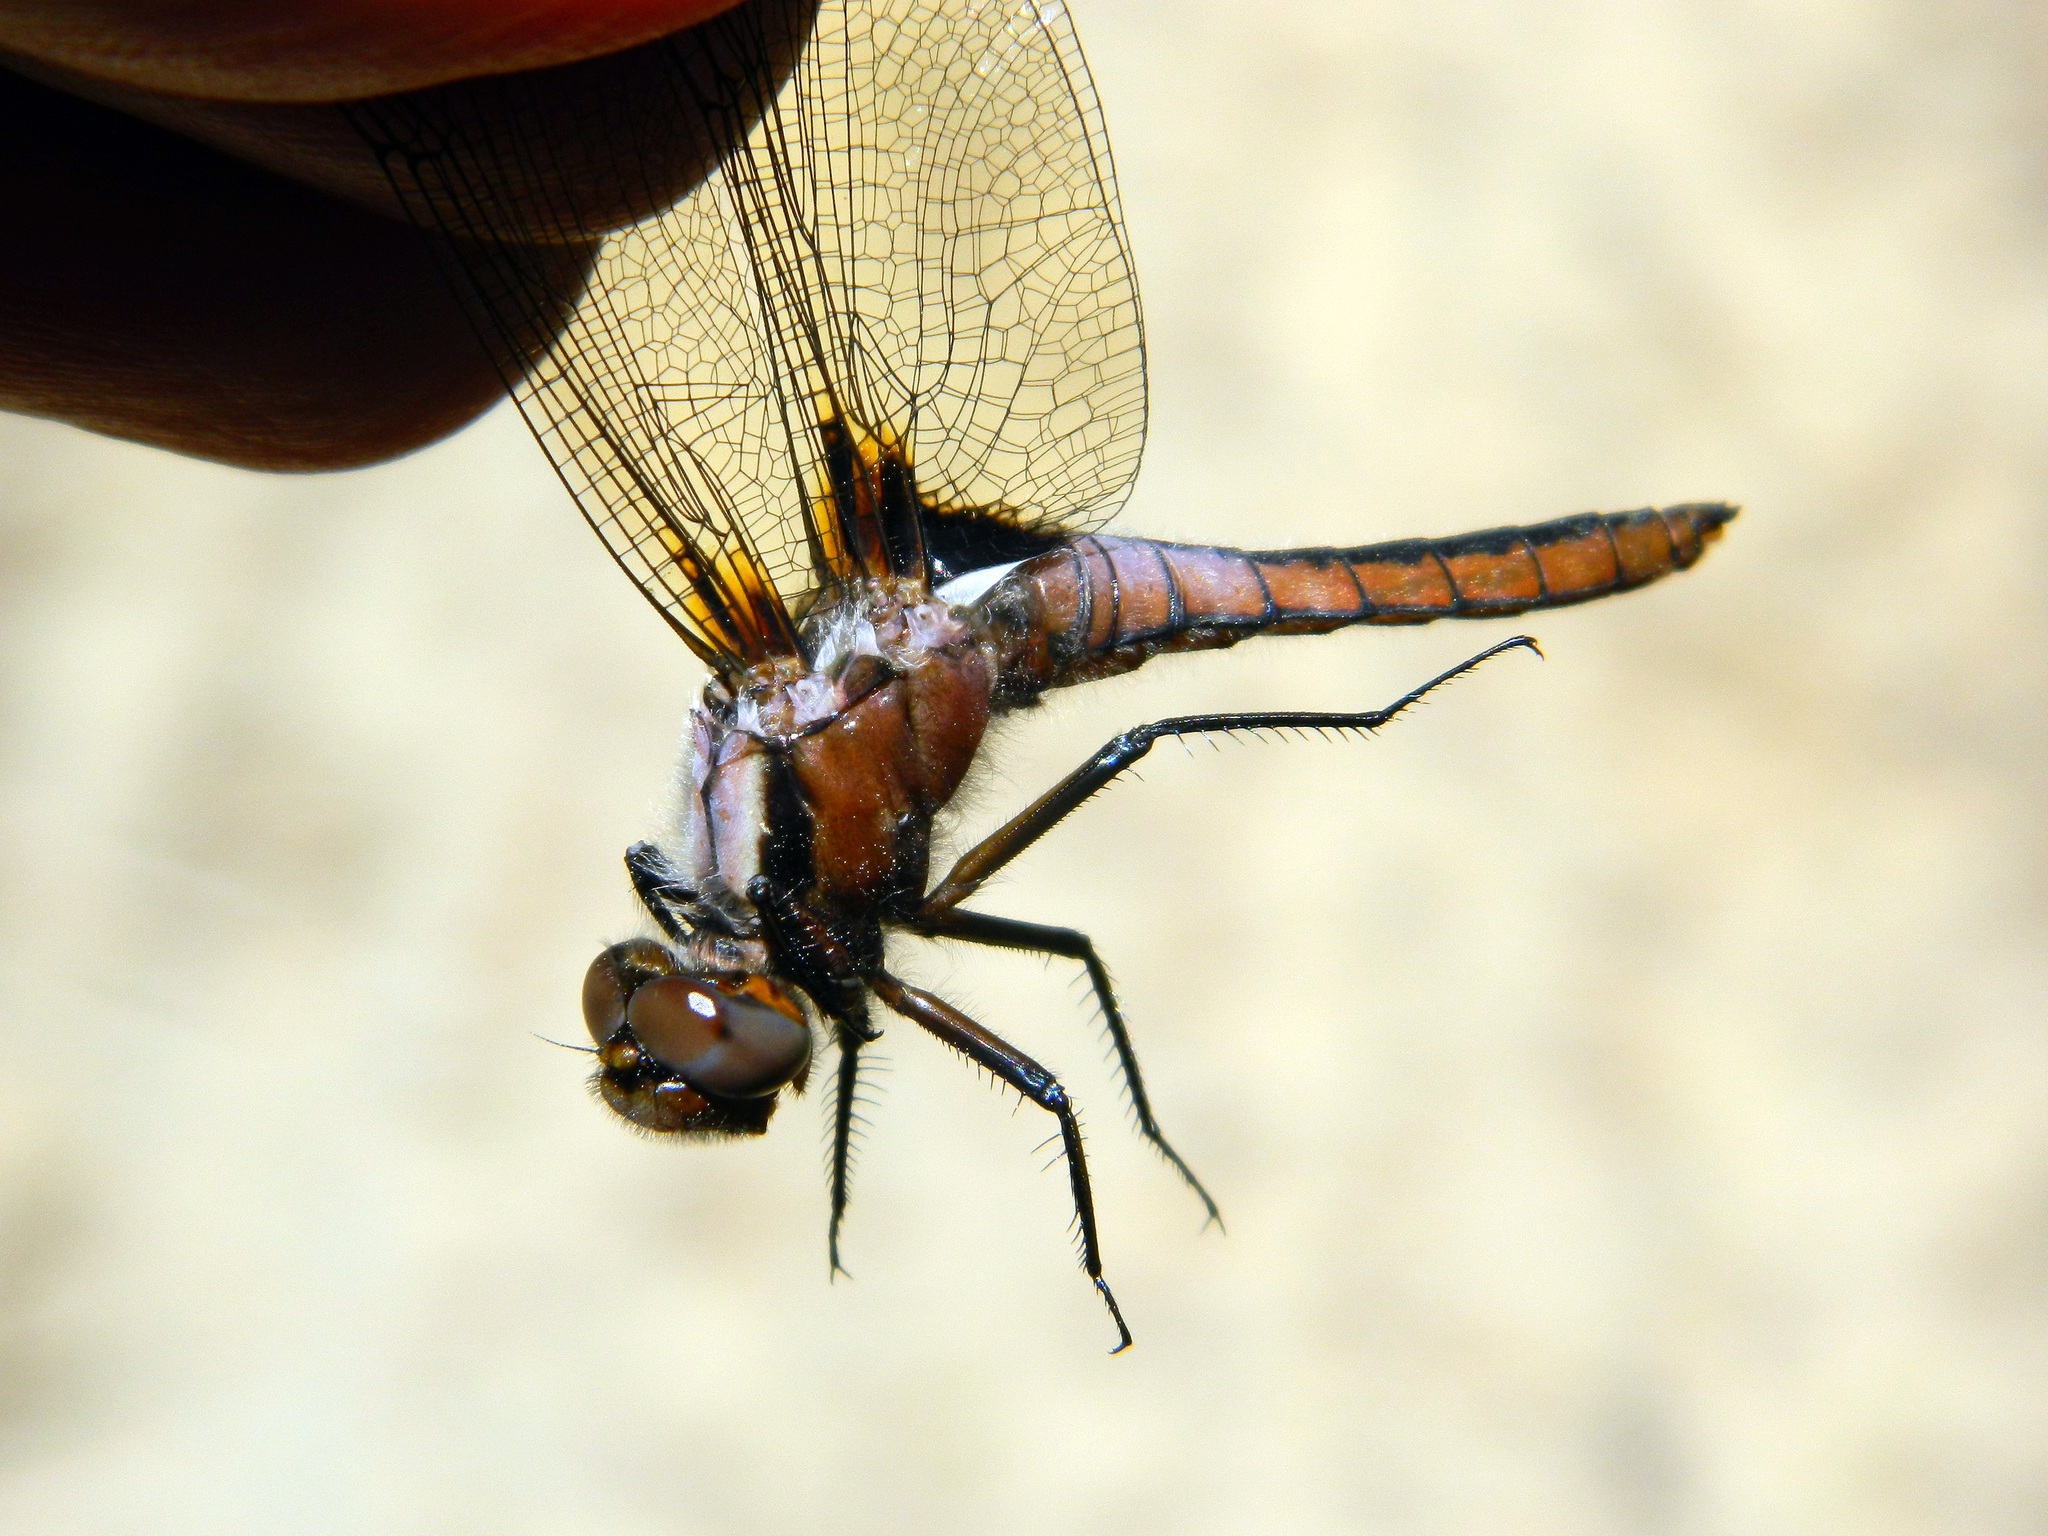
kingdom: Animalia
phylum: Arthropoda
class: Insecta
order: Odonata
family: Libellulidae
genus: Ladona
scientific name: Ladona julia
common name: Chalk-fronted corporal
